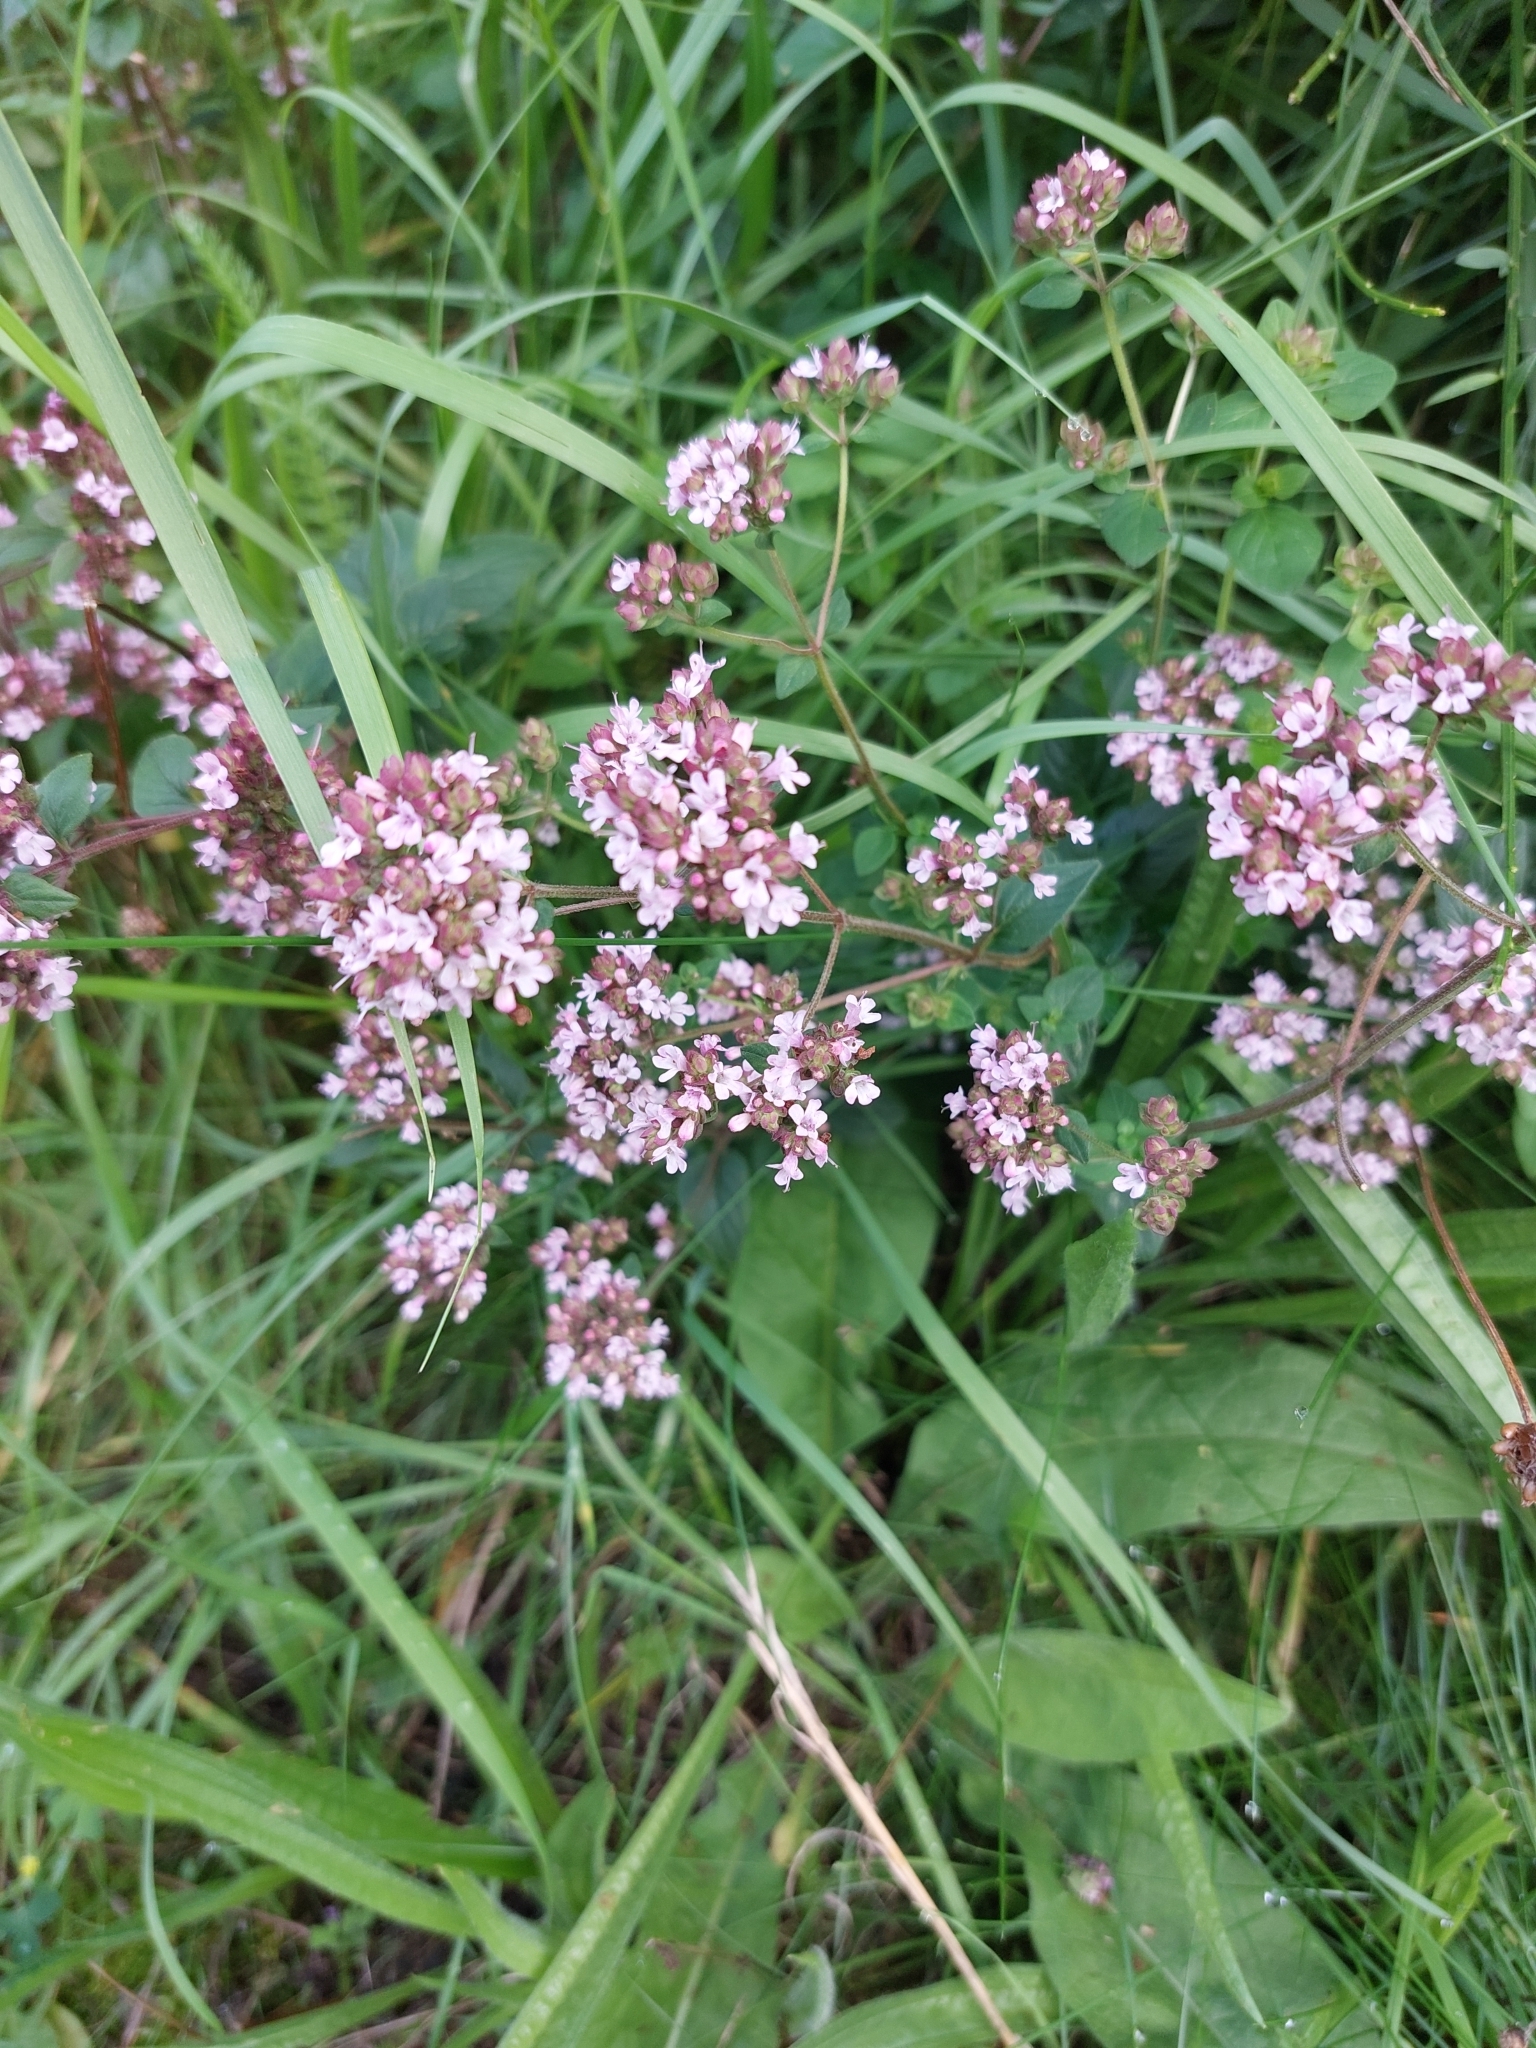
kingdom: Plantae
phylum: Tracheophyta
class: Magnoliopsida
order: Lamiales
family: Lamiaceae
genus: Origanum
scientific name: Origanum vulgare
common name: Wild marjoram
